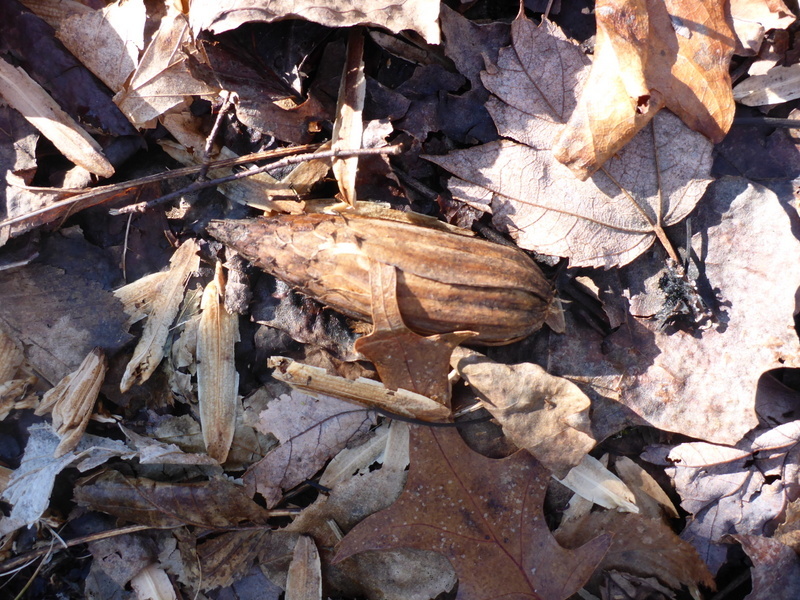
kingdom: Plantae
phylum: Tracheophyta
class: Magnoliopsida
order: Magnoliales
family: Magnoliaceae
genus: Liriodendron
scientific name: Liriodendron tulipifera
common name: Tulip tree
